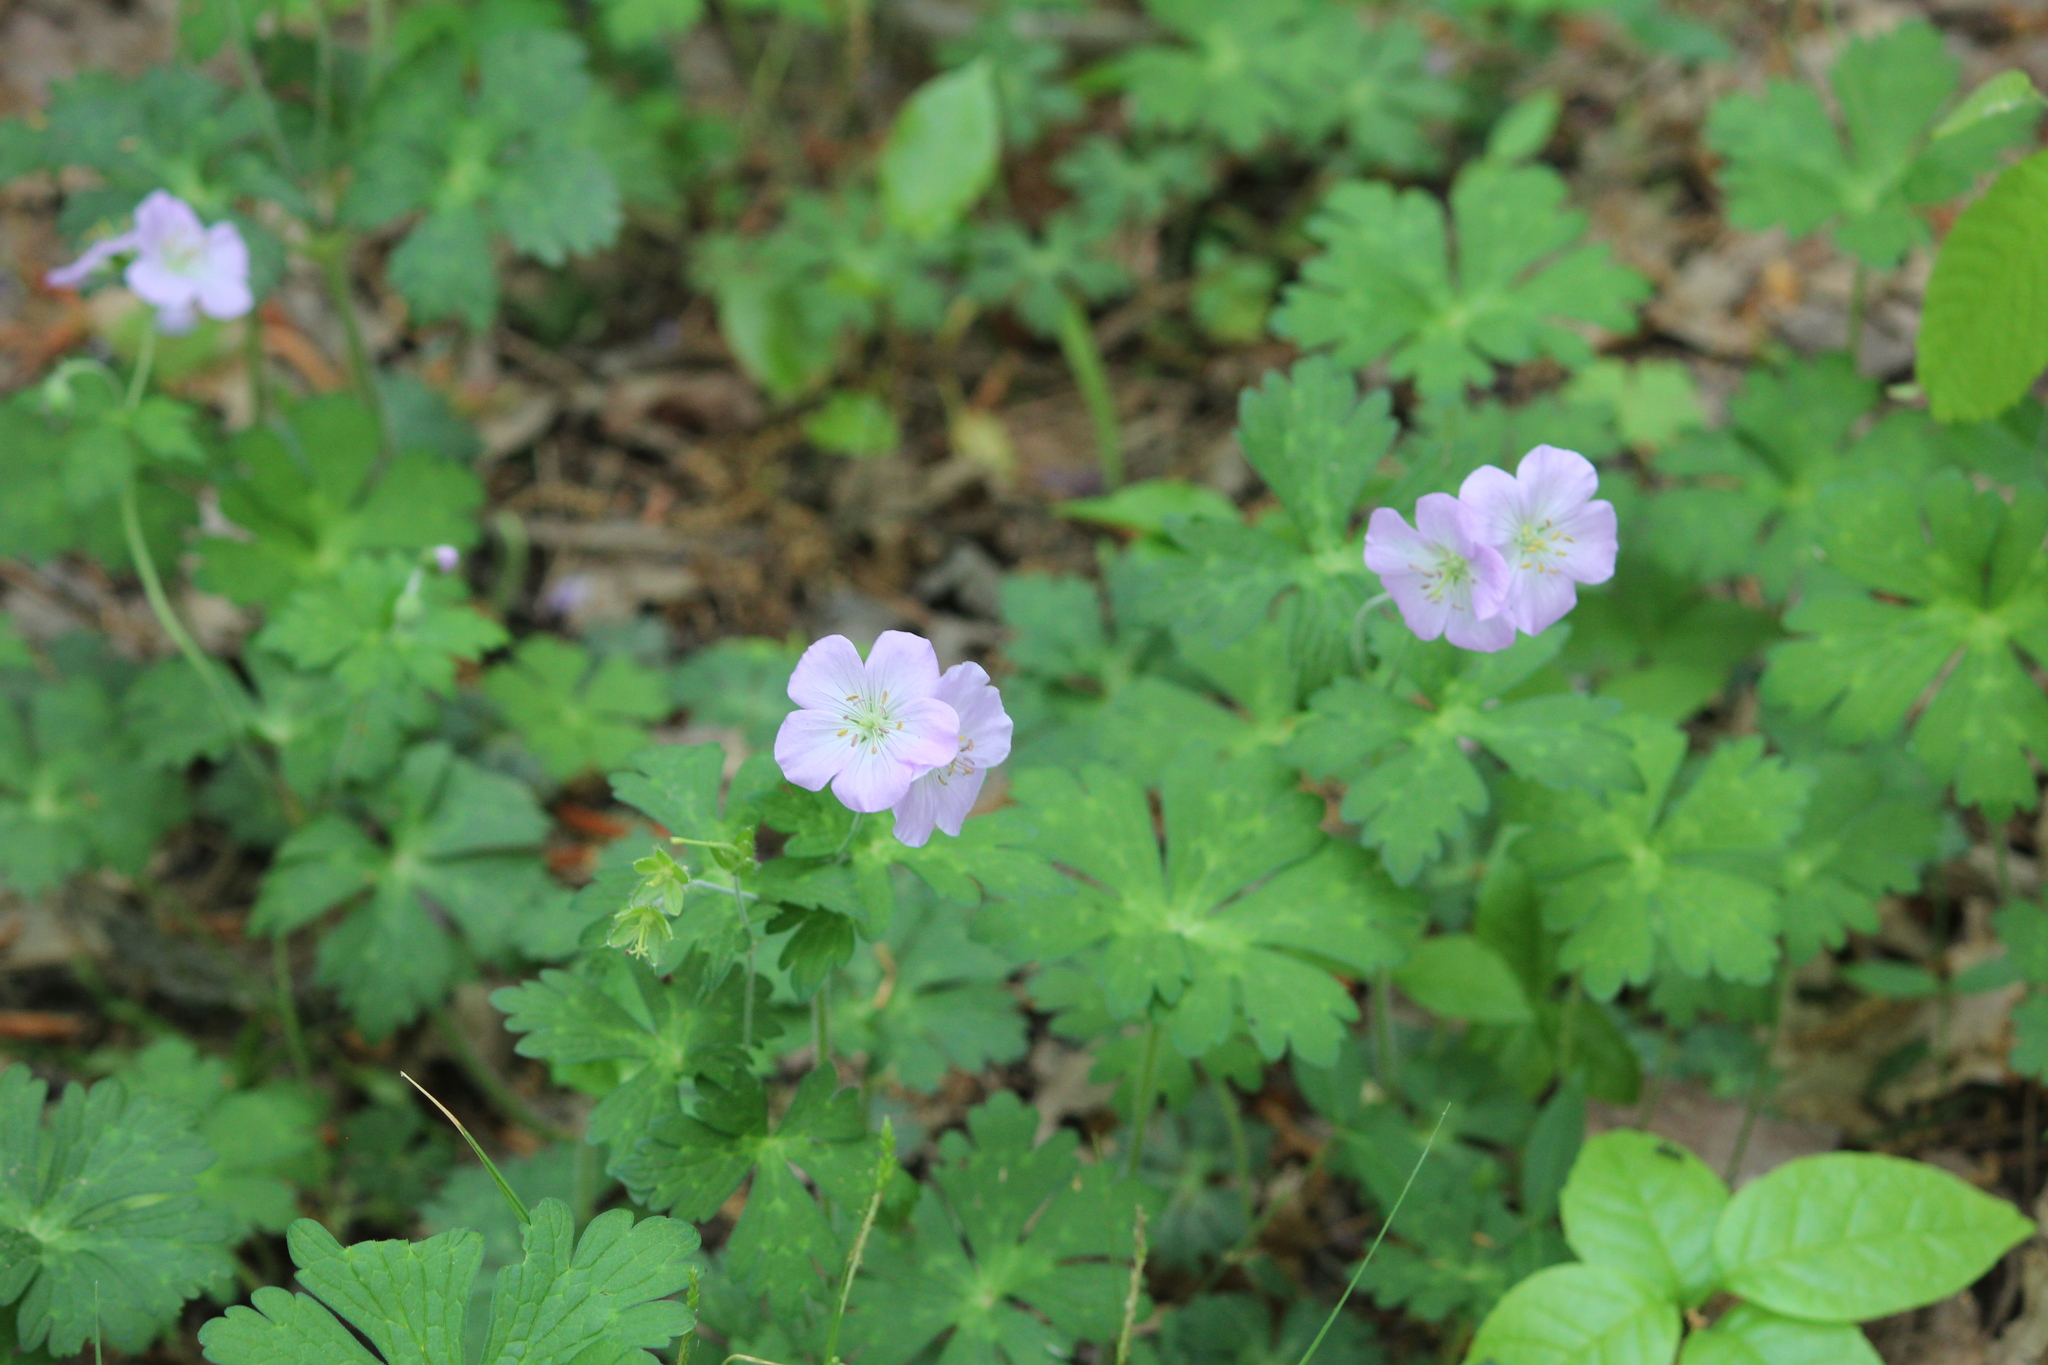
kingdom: Plantae
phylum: Tracheophyta
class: Magnoliopsida
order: Geraniales
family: Geraniaceae
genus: Geranium
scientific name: Geranium maculatum
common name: Spotted geranium
